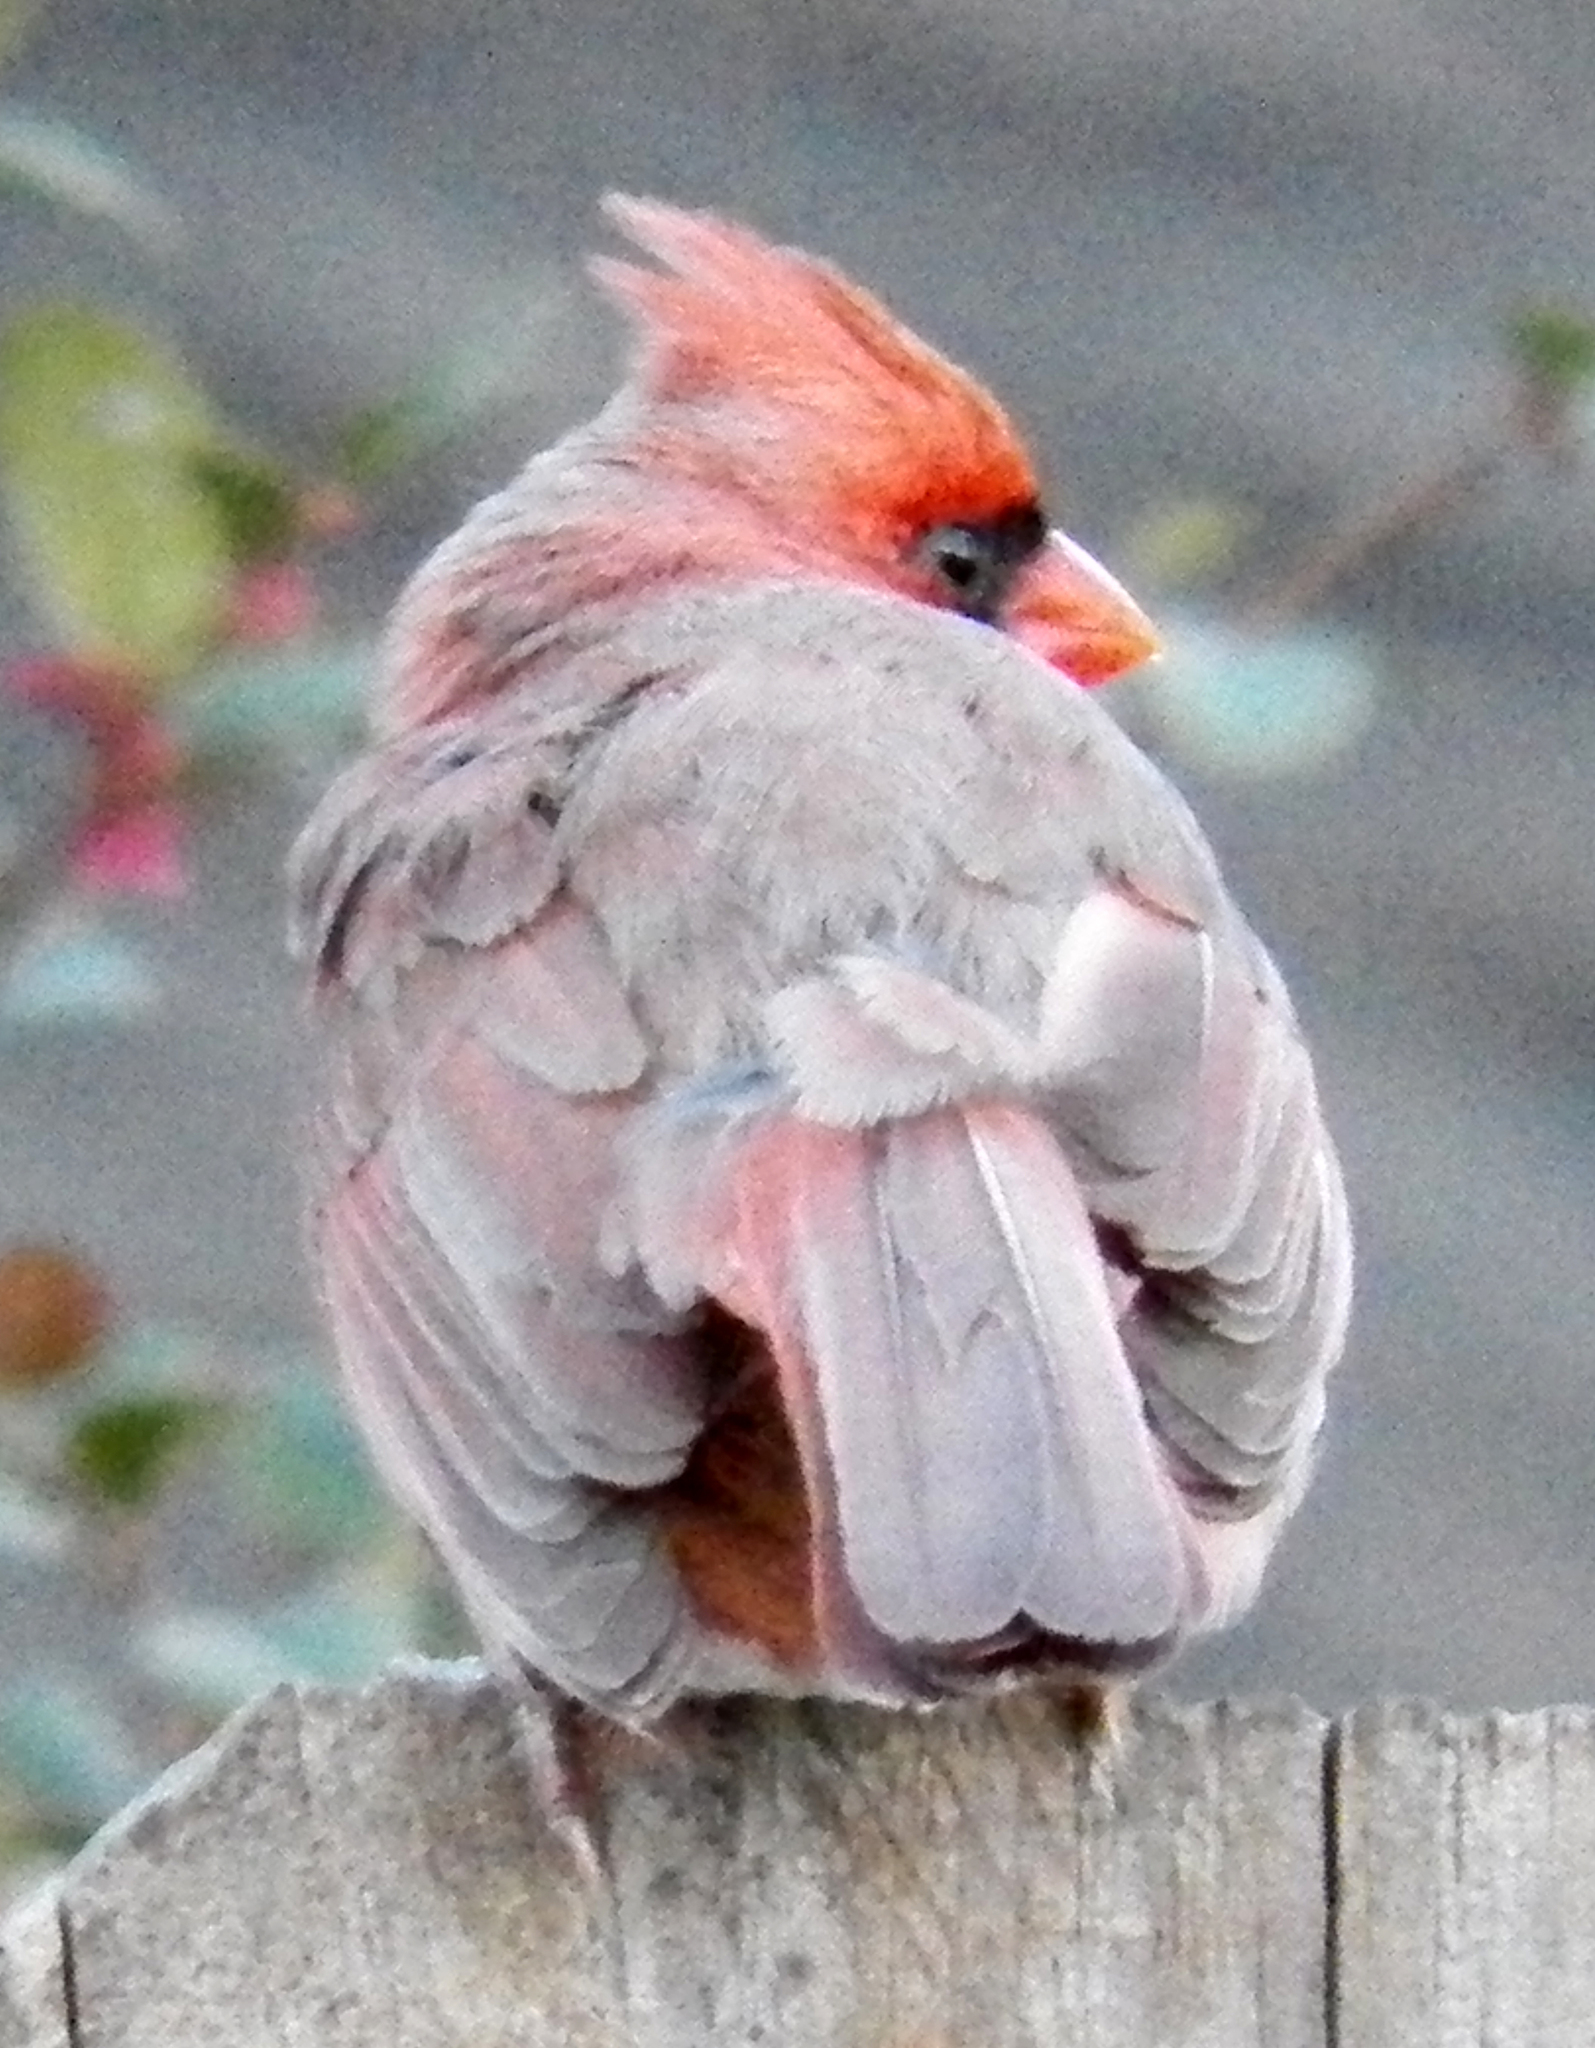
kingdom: Animalia
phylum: Chordata
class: Aves
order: Passeriformes
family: Cardinalidae
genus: Cardinalis
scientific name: Cardinalis cardinalis
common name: Northern cardinal
